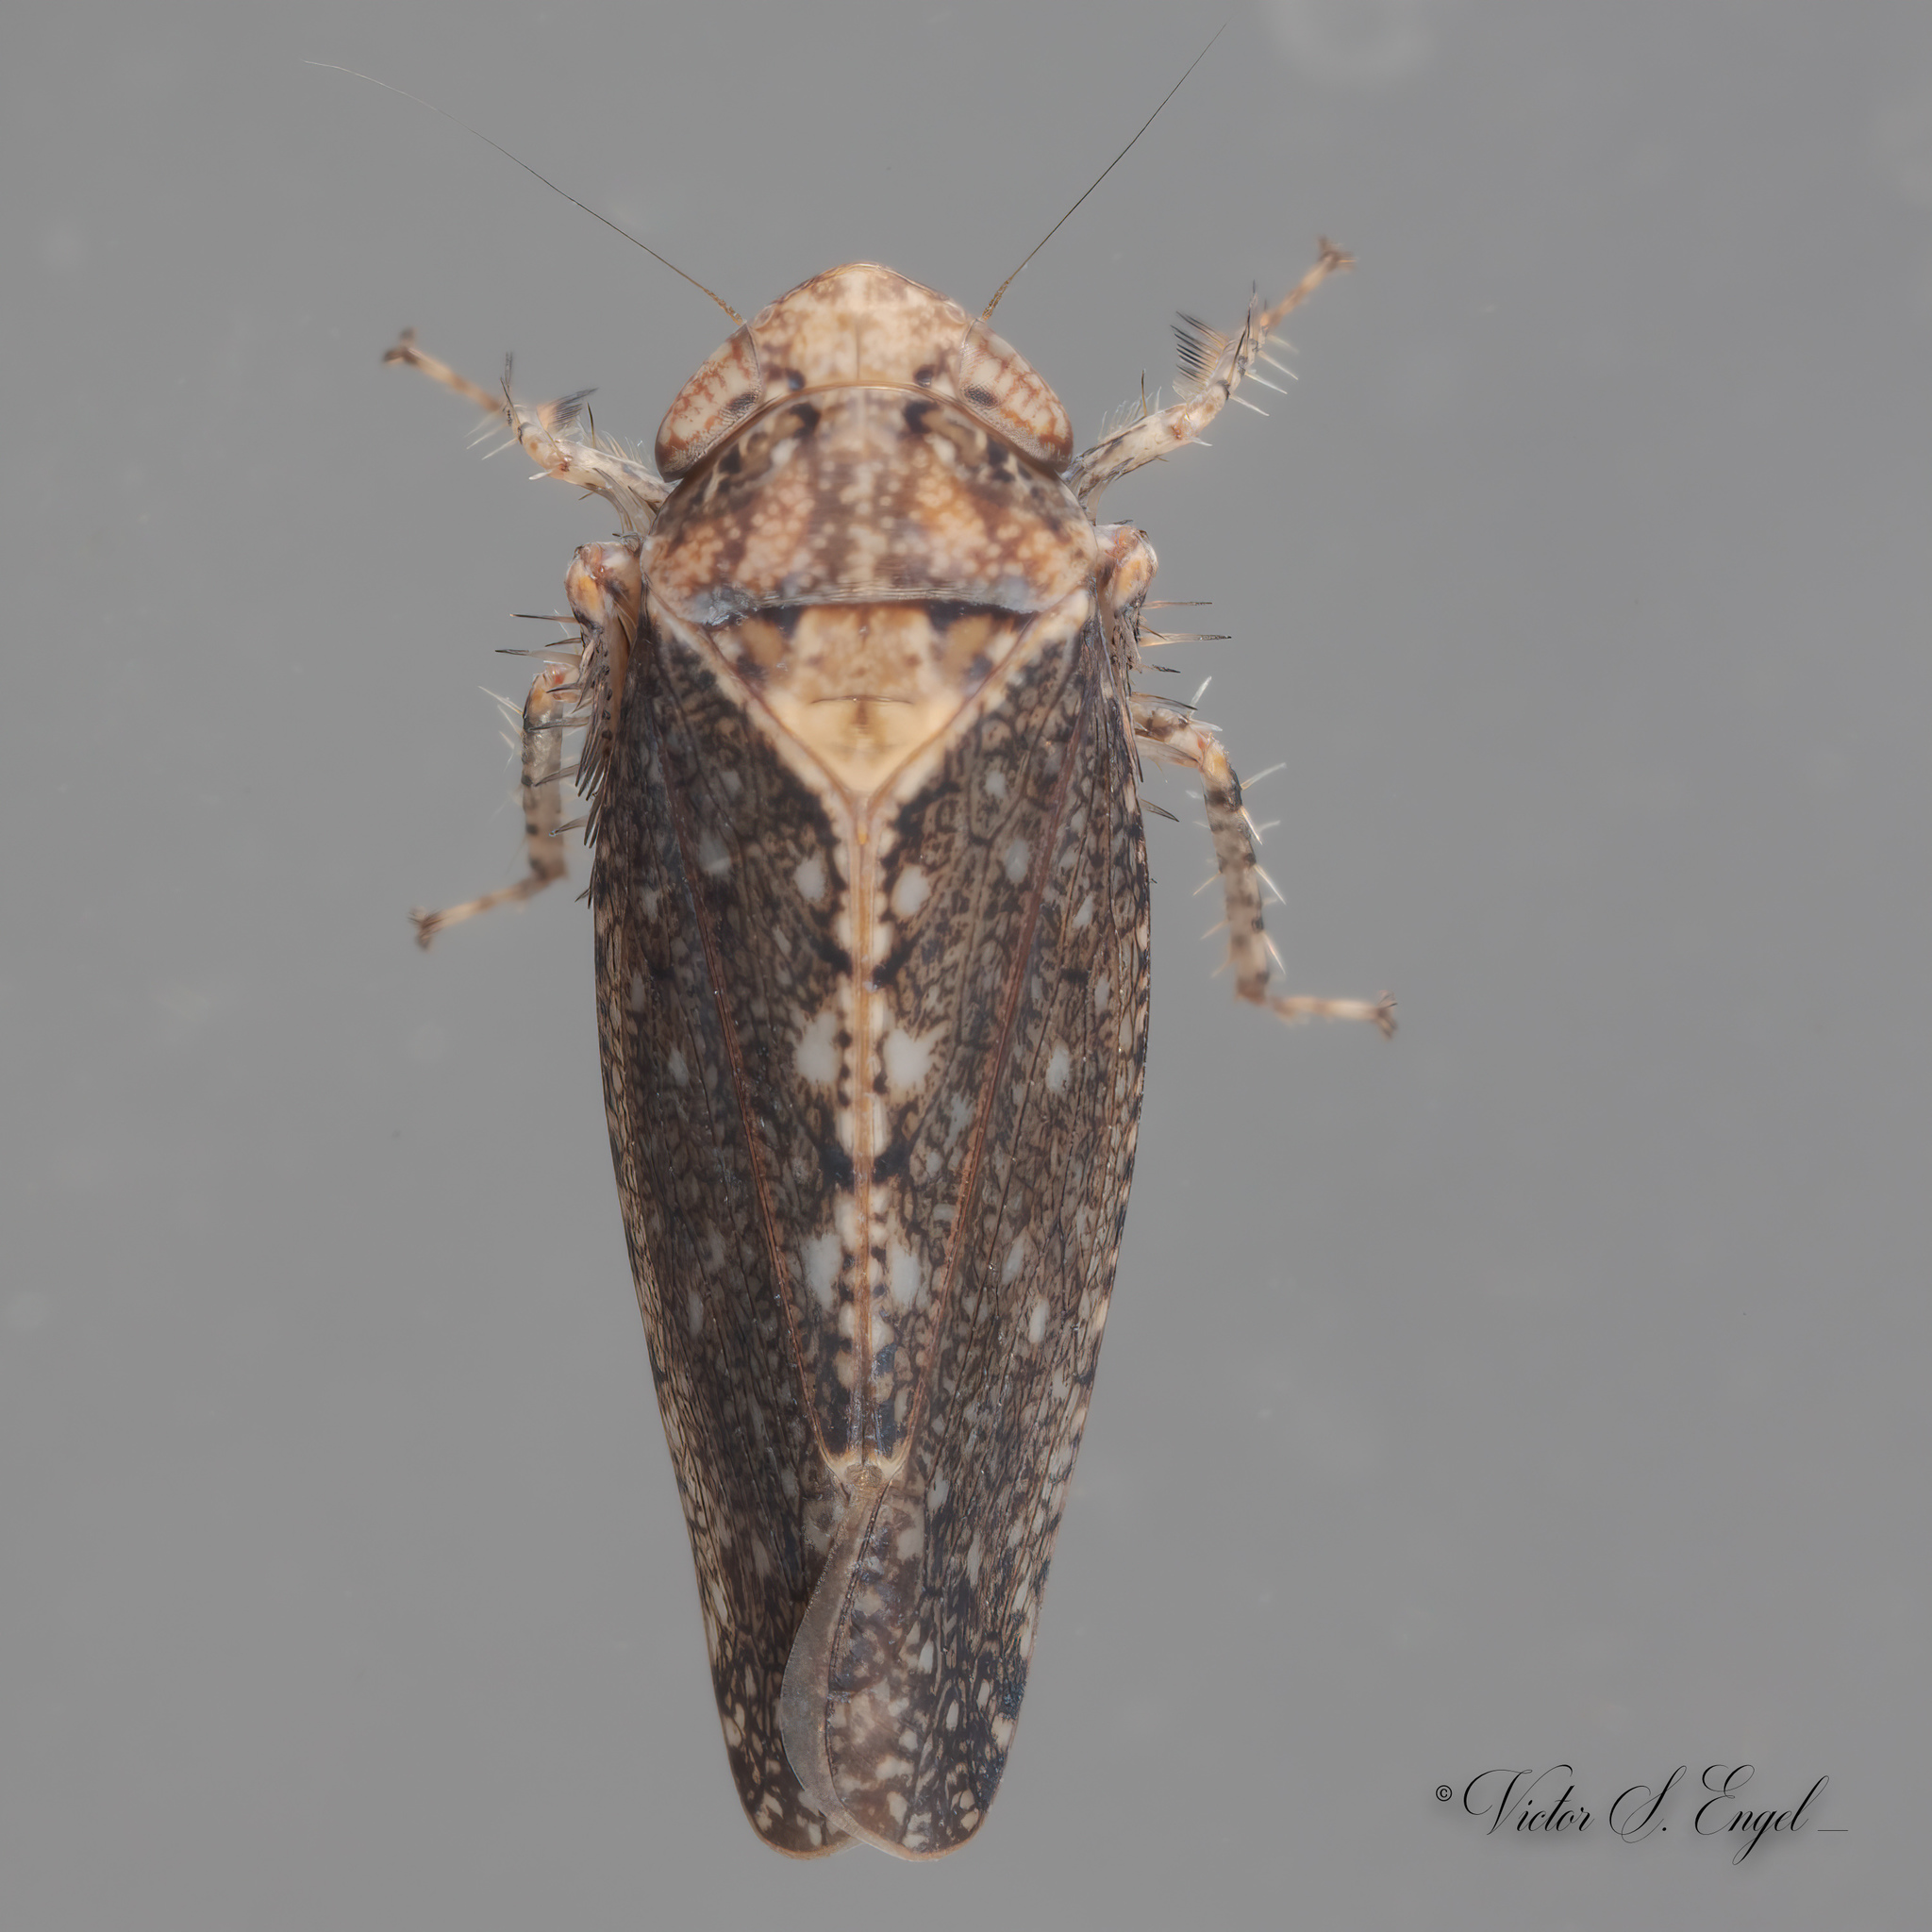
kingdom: Animalia
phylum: Arthropoda
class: Insecta
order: Hemiptera
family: Cicadellidae
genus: Excultanus
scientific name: Excultanus excultus
